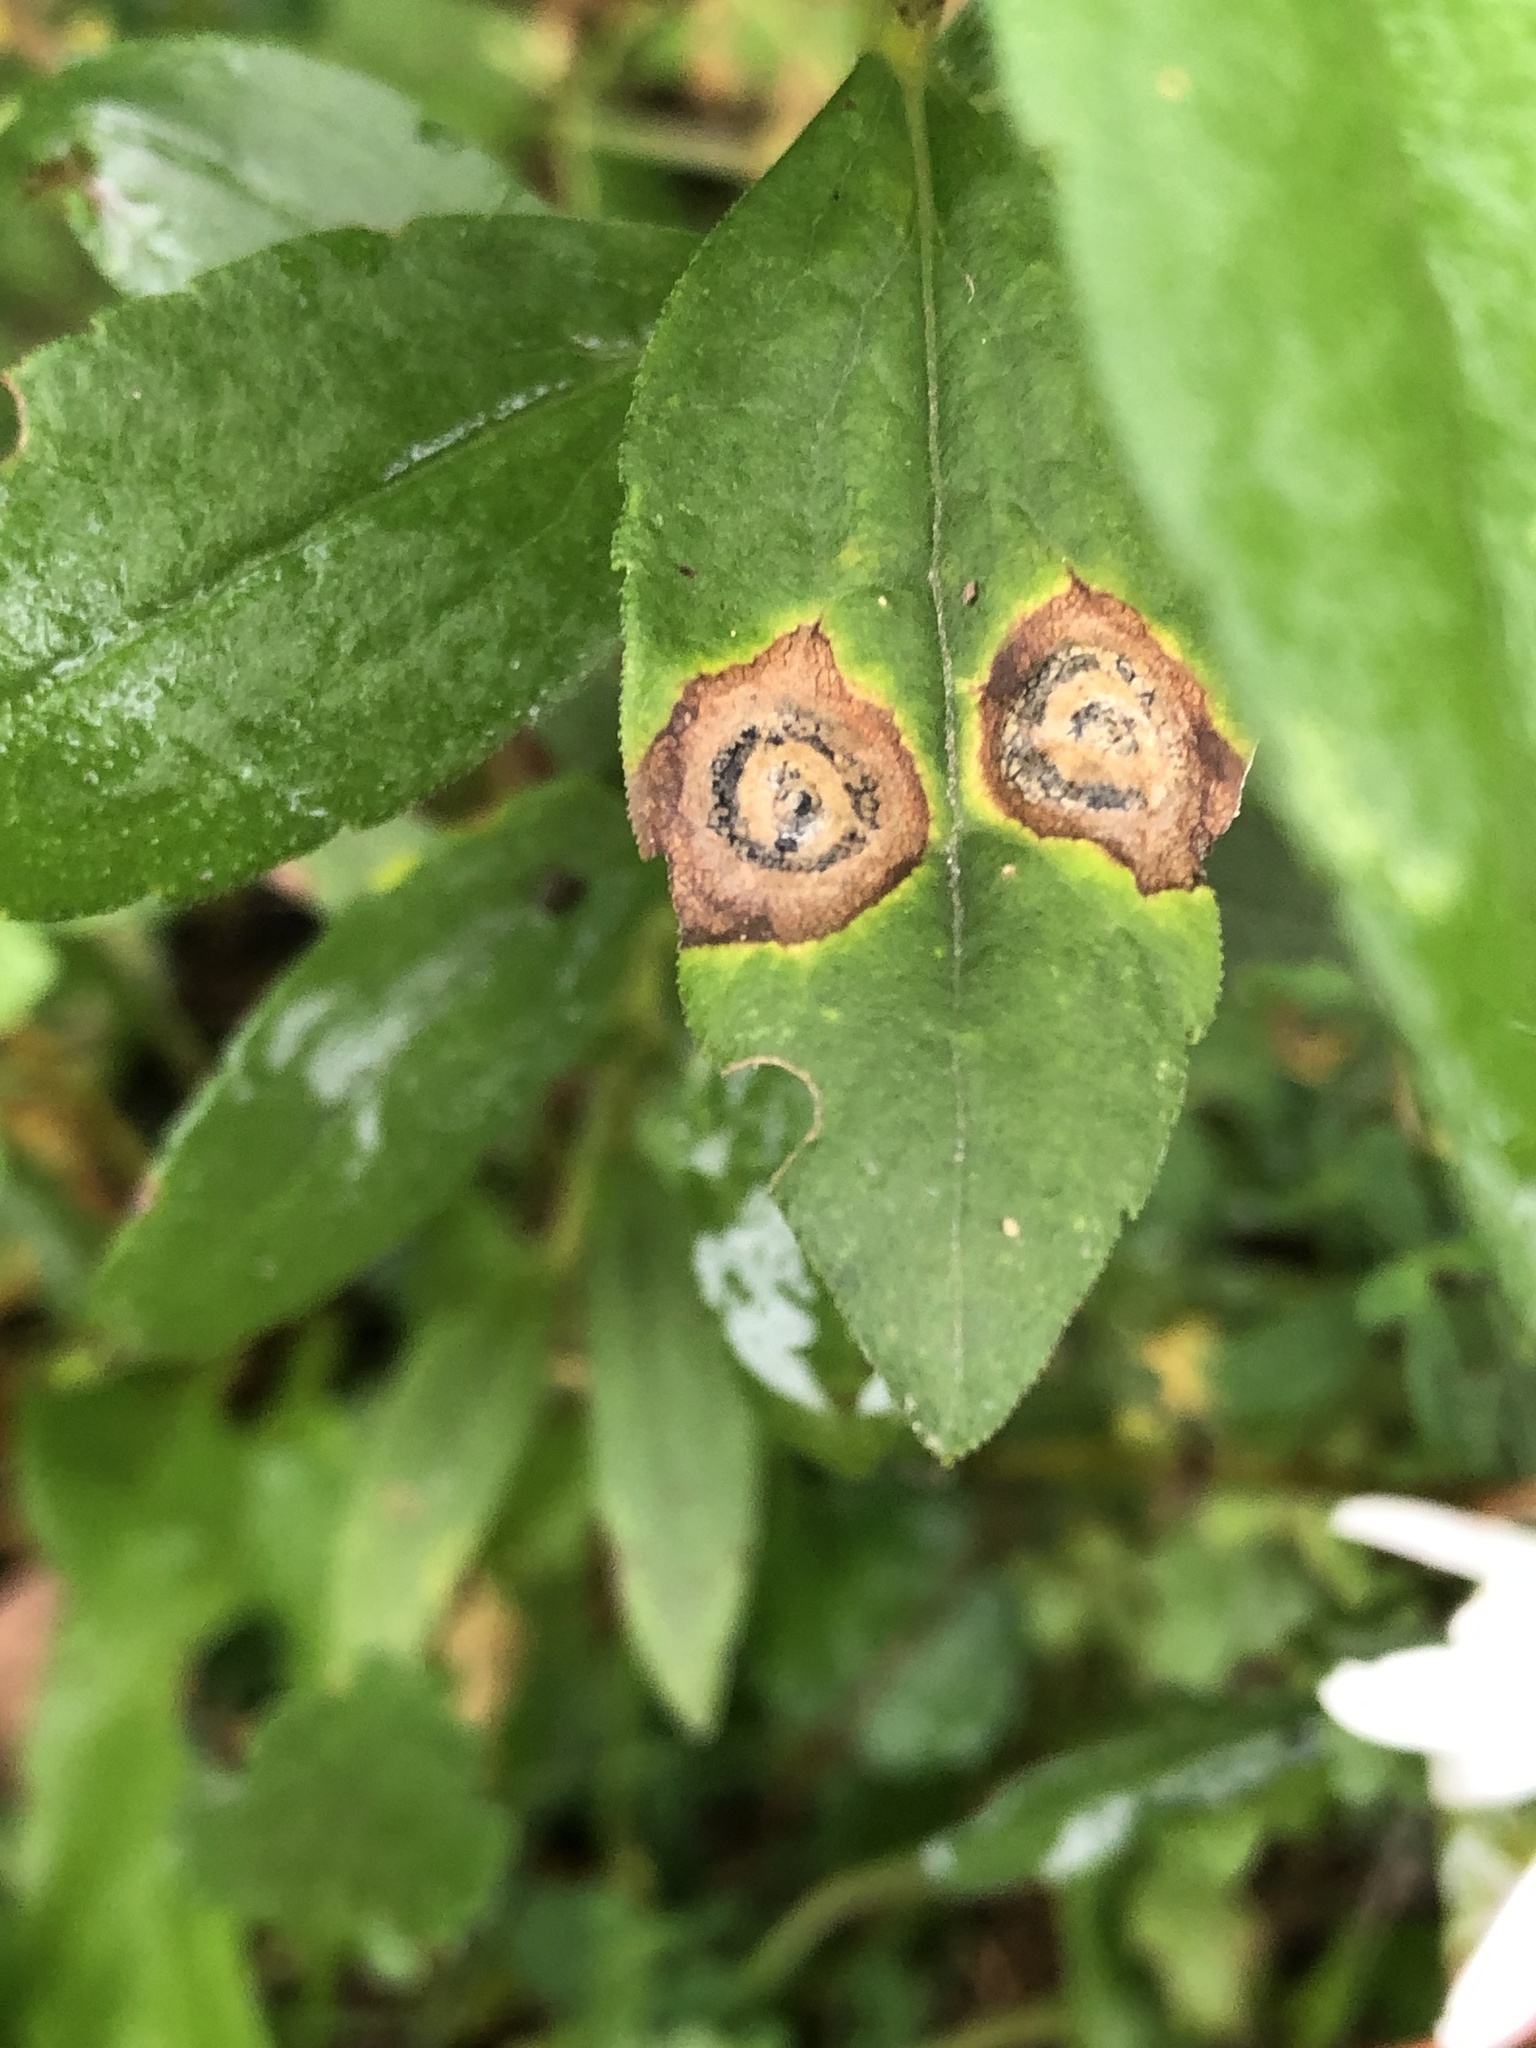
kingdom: Animalia
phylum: Arthropoda
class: Insecta
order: Diptera
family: Cecidomyiidae
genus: Asteromyia
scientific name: Asteromyia carbonifera
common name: Carbonifera goldenrod gall midge
